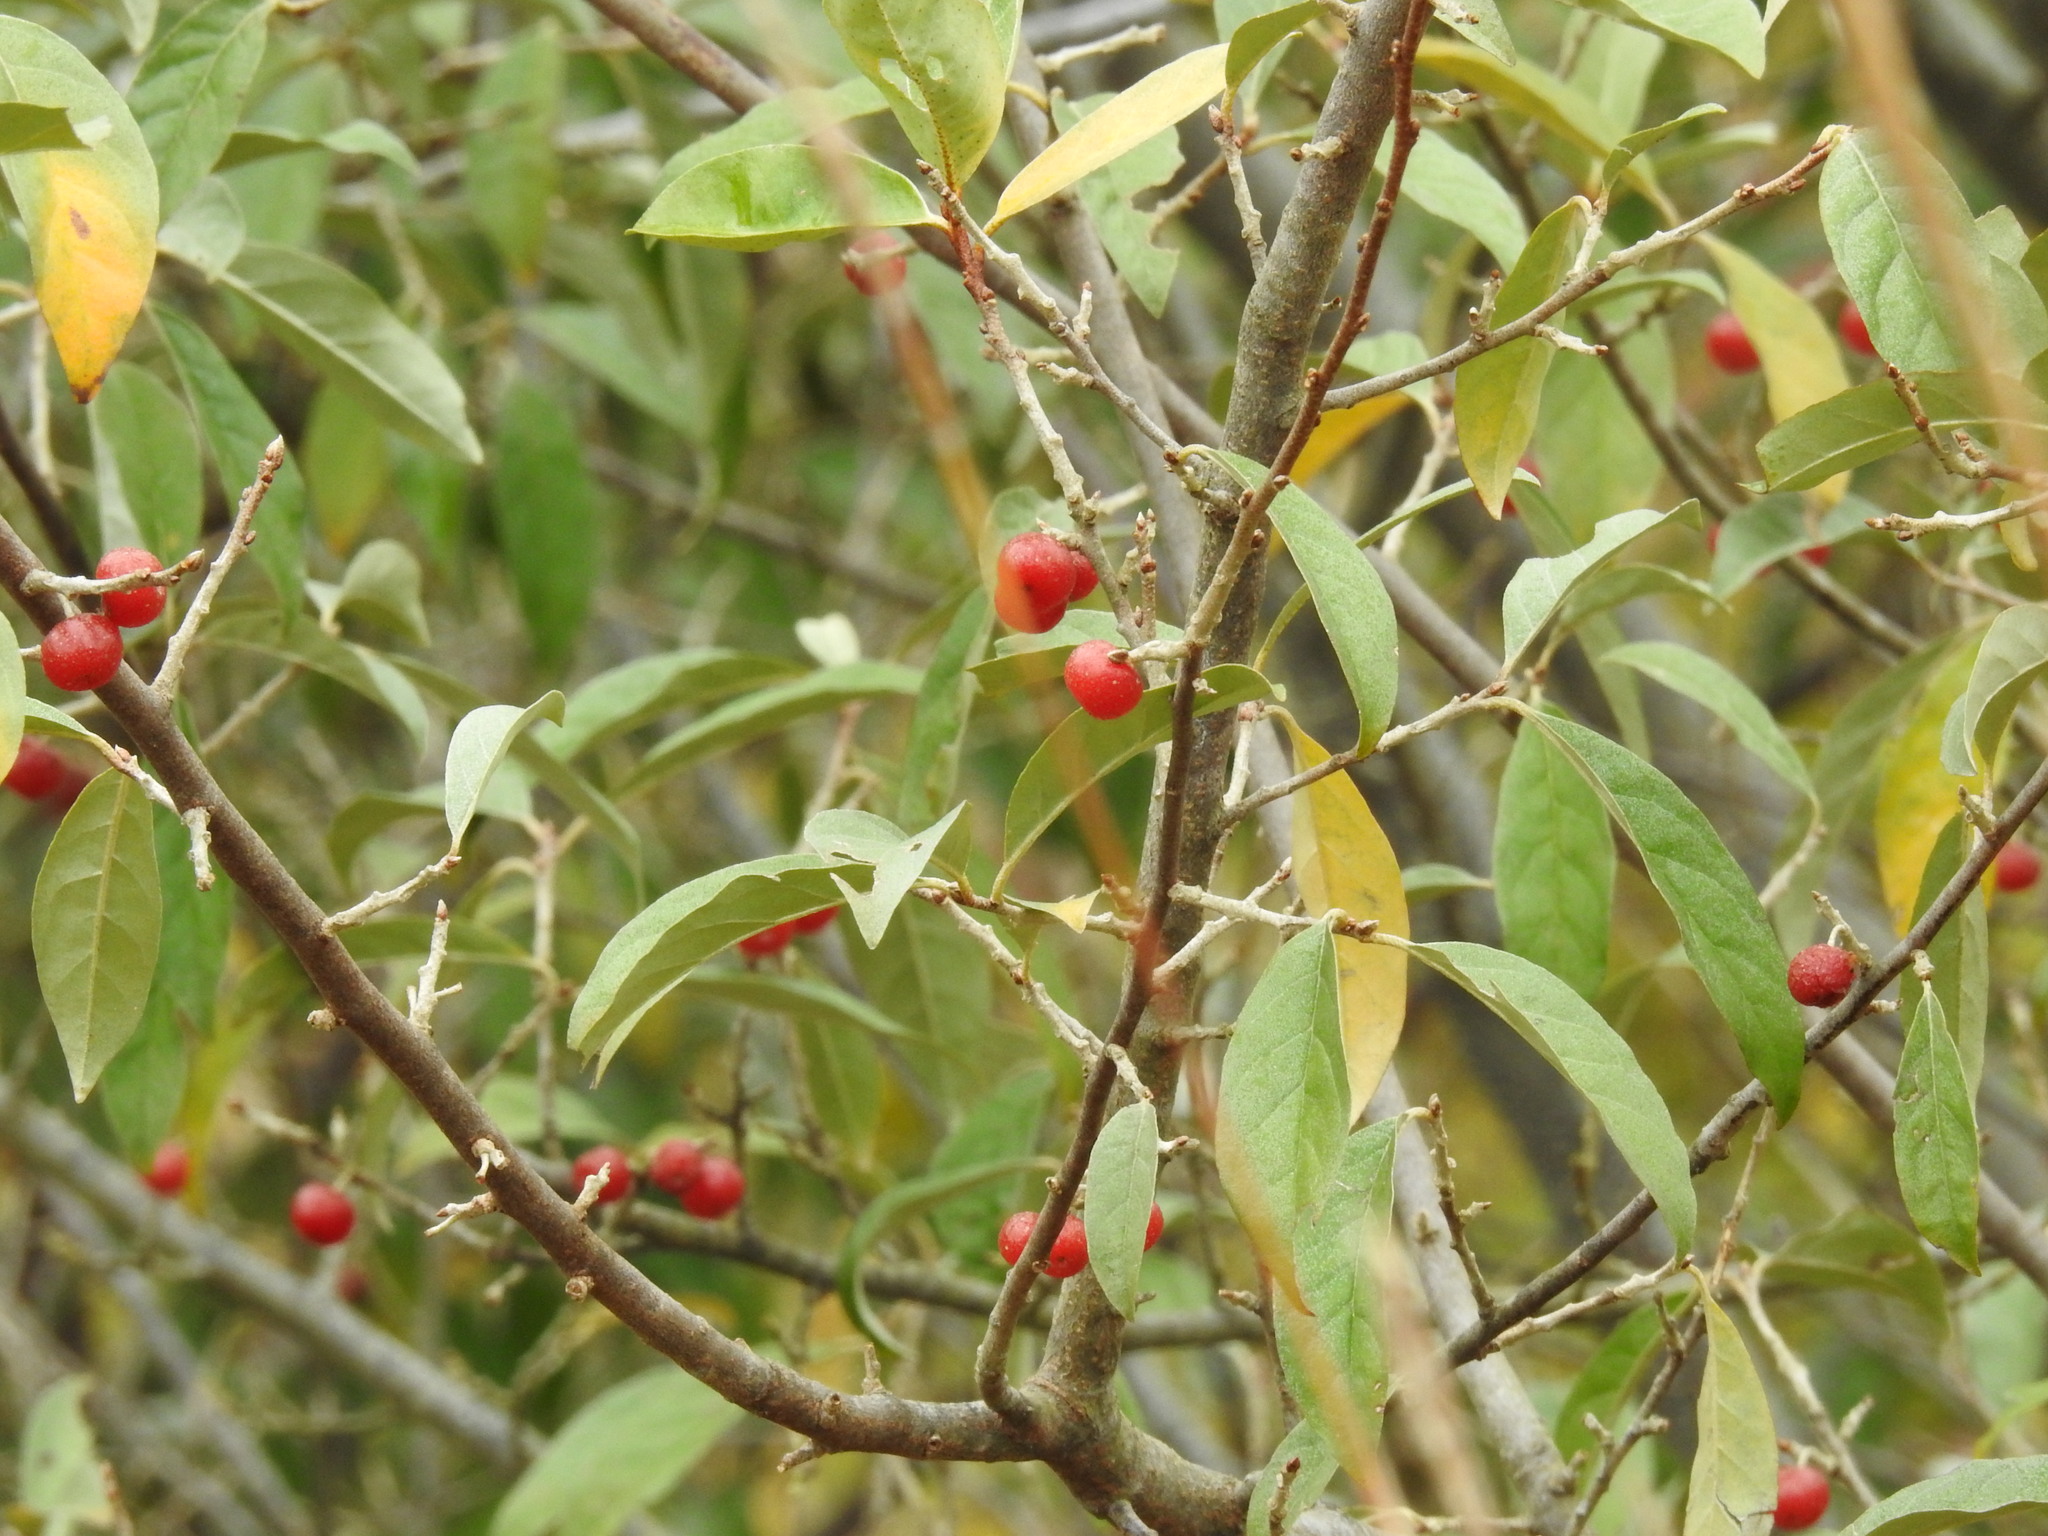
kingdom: Plantae
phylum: Tracheophyta
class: Magnoliopsida
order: Rosales
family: Elaeagnaceae
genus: Elaeagnus
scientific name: Elaeagnus umbellata
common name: Autumn olive
